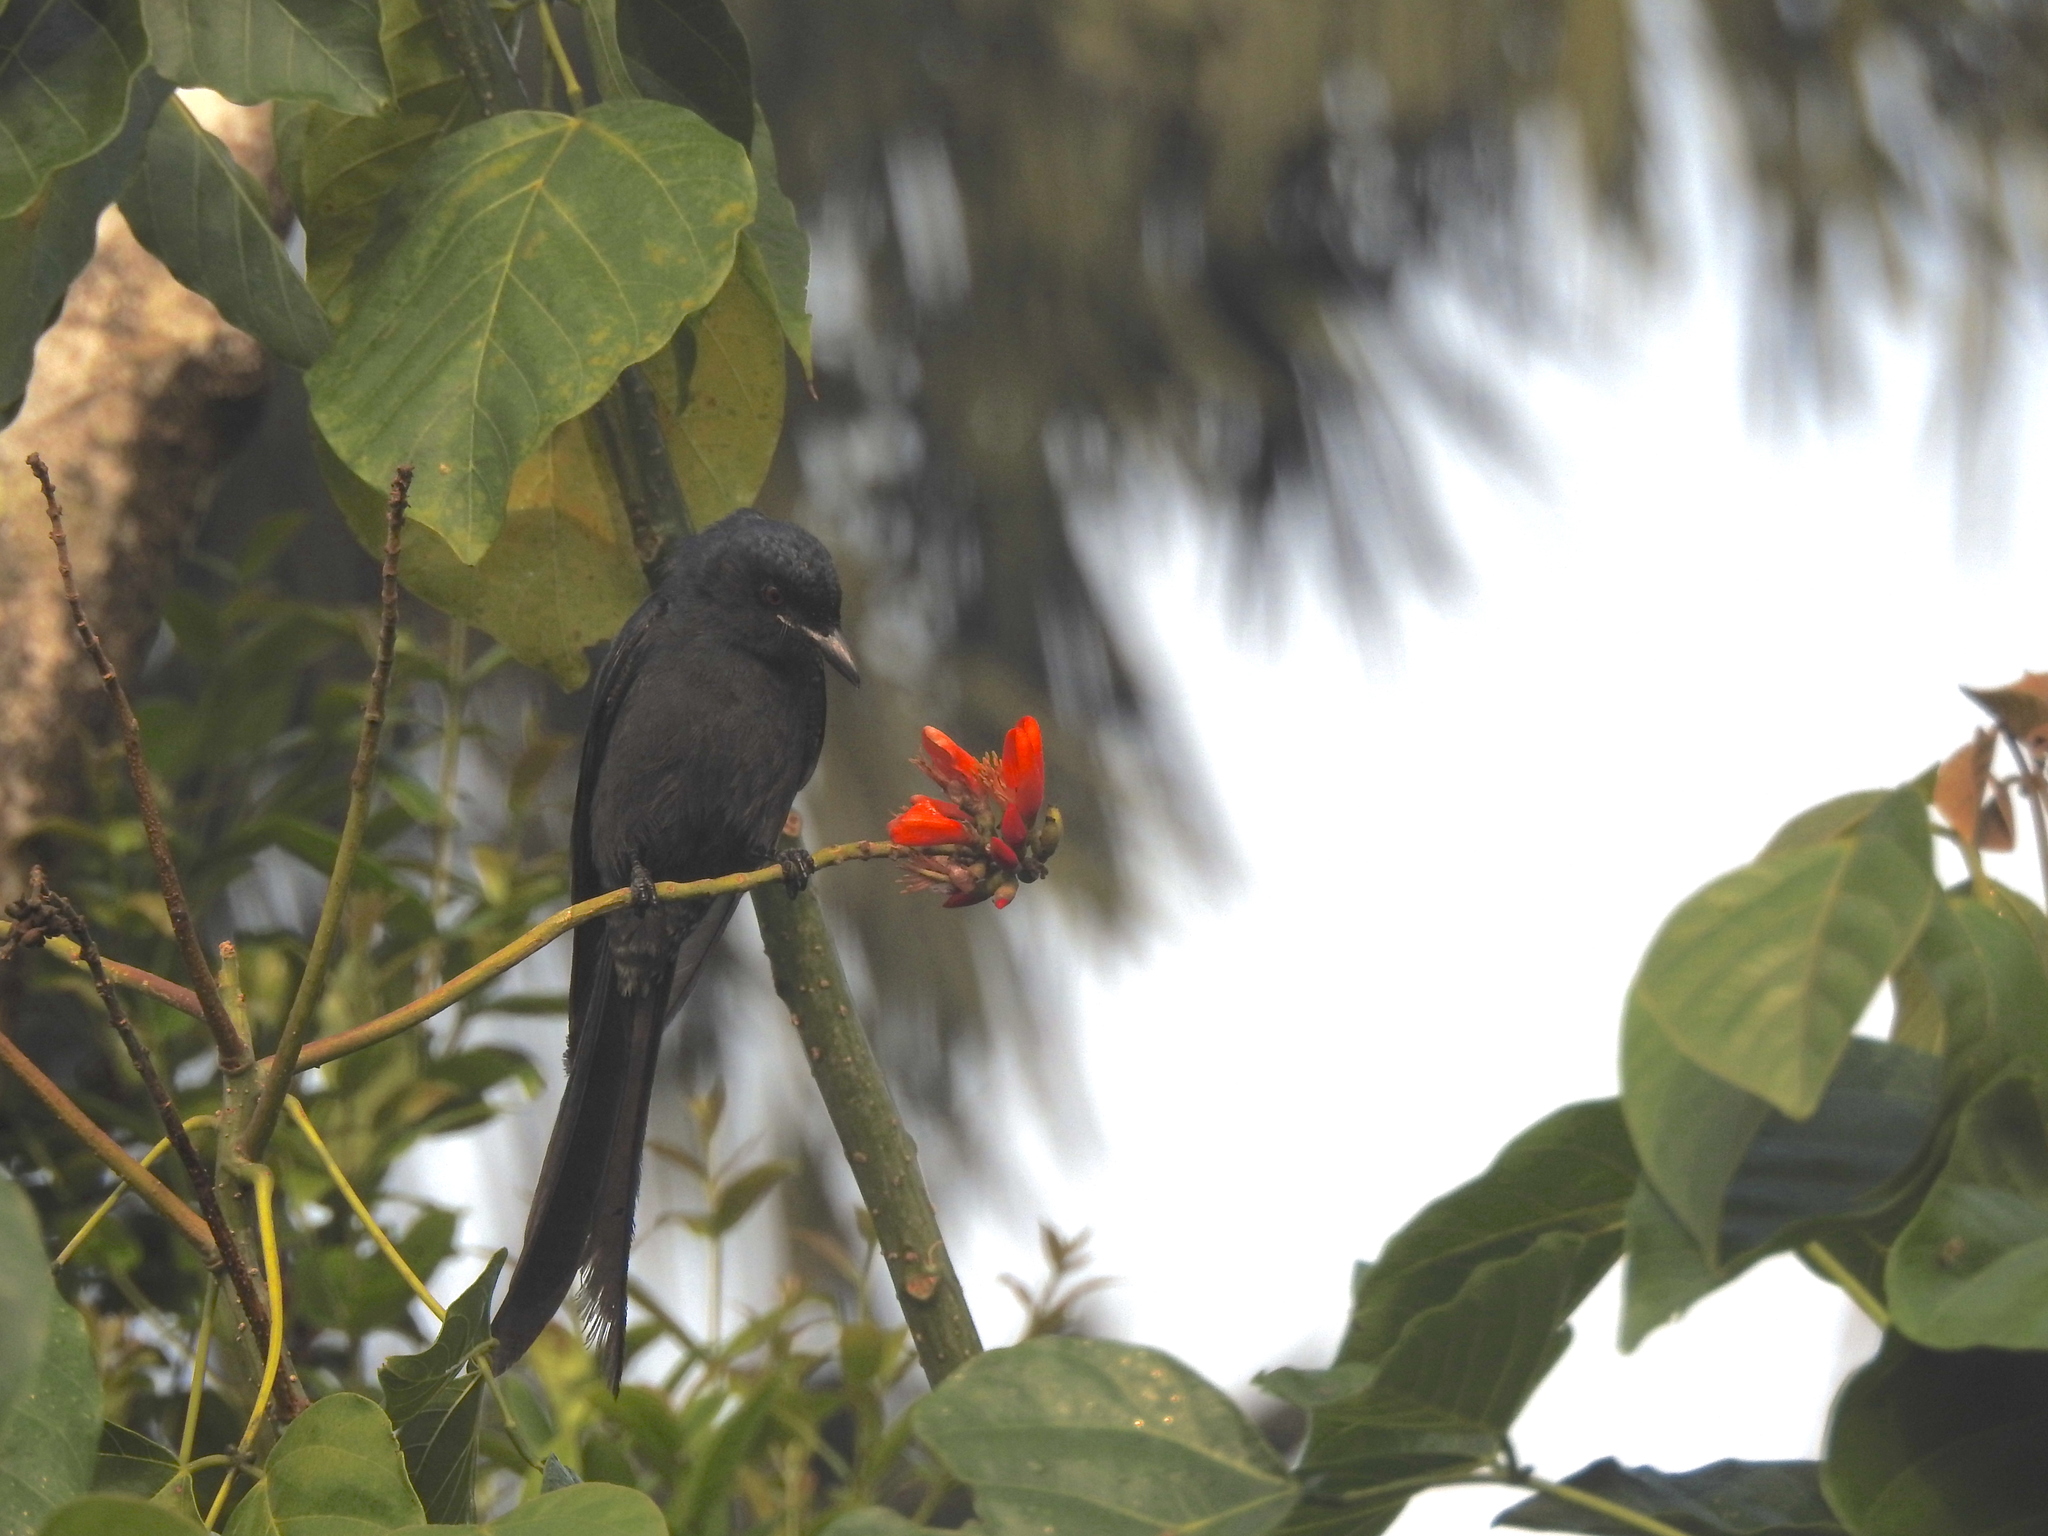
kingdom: Animalia
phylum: Chordata
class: Aves
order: Passeriformes
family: Dicruridae
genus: Dicrurus
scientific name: Dicrurus macrocercus
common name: Black drongo
